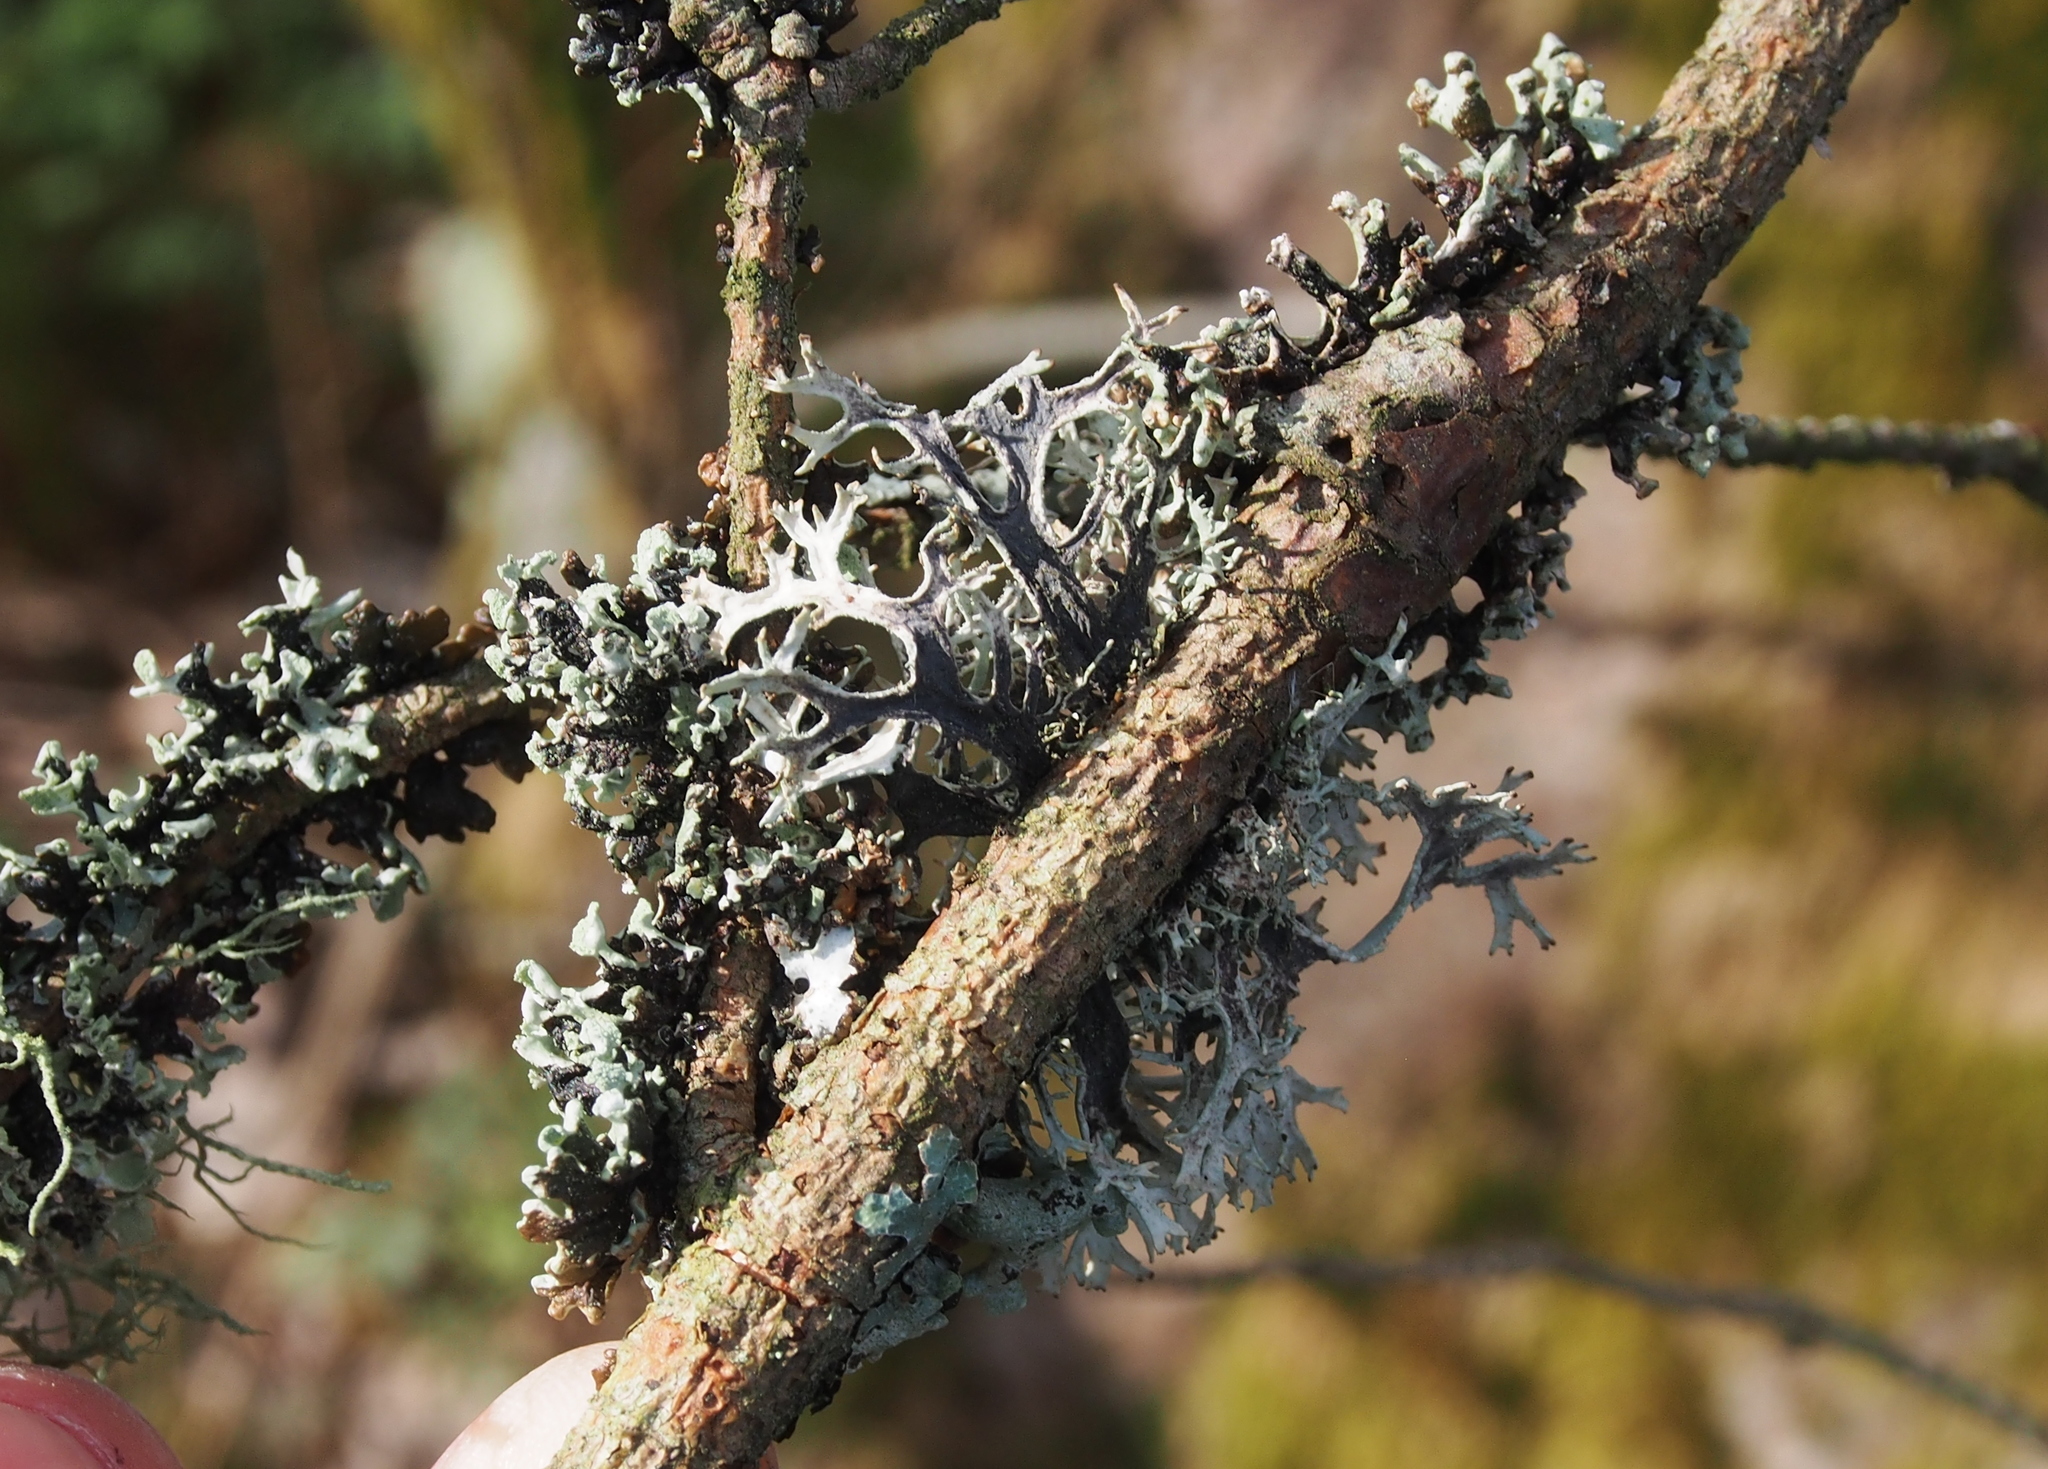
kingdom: Fungi
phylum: Ascomycota
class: Lecanoromycetes
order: Lecanorales
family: Parmeliaceae
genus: Pseudevernia
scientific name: Pseudevernia furfuracea
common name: Tree moss
